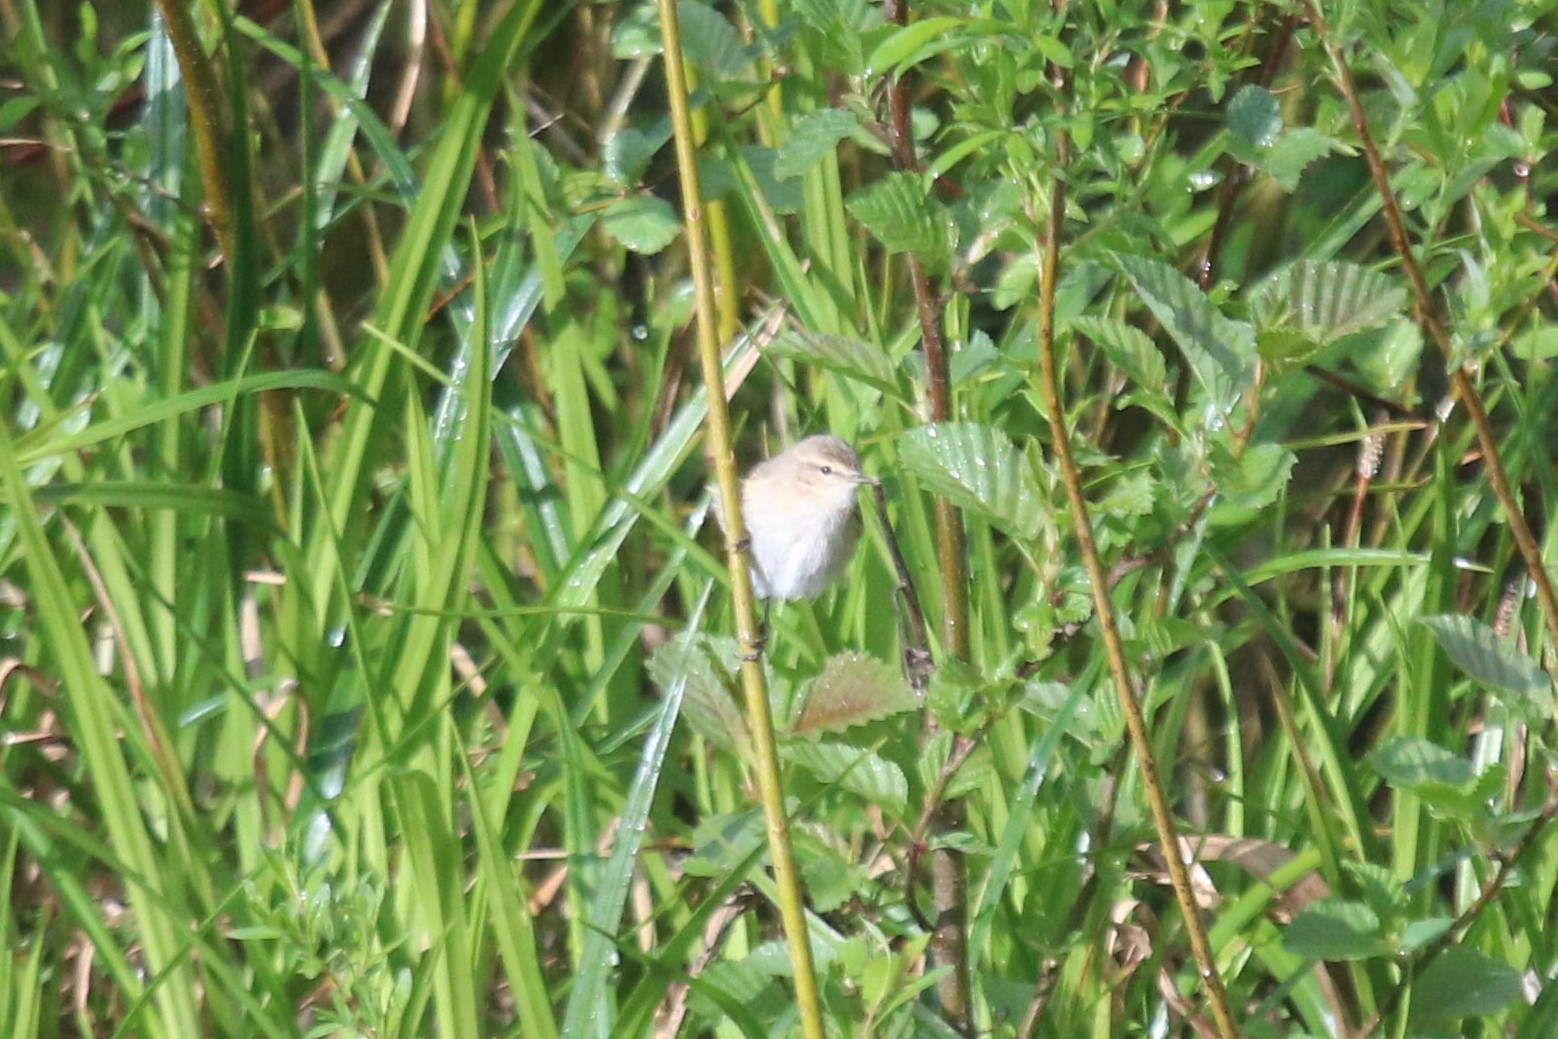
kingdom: Animalia
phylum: Chordata
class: Aves
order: Passeriformes
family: Phylloscopidae
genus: Phylloscopus
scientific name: Phylloscopus collybita
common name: Common chiffchaff
